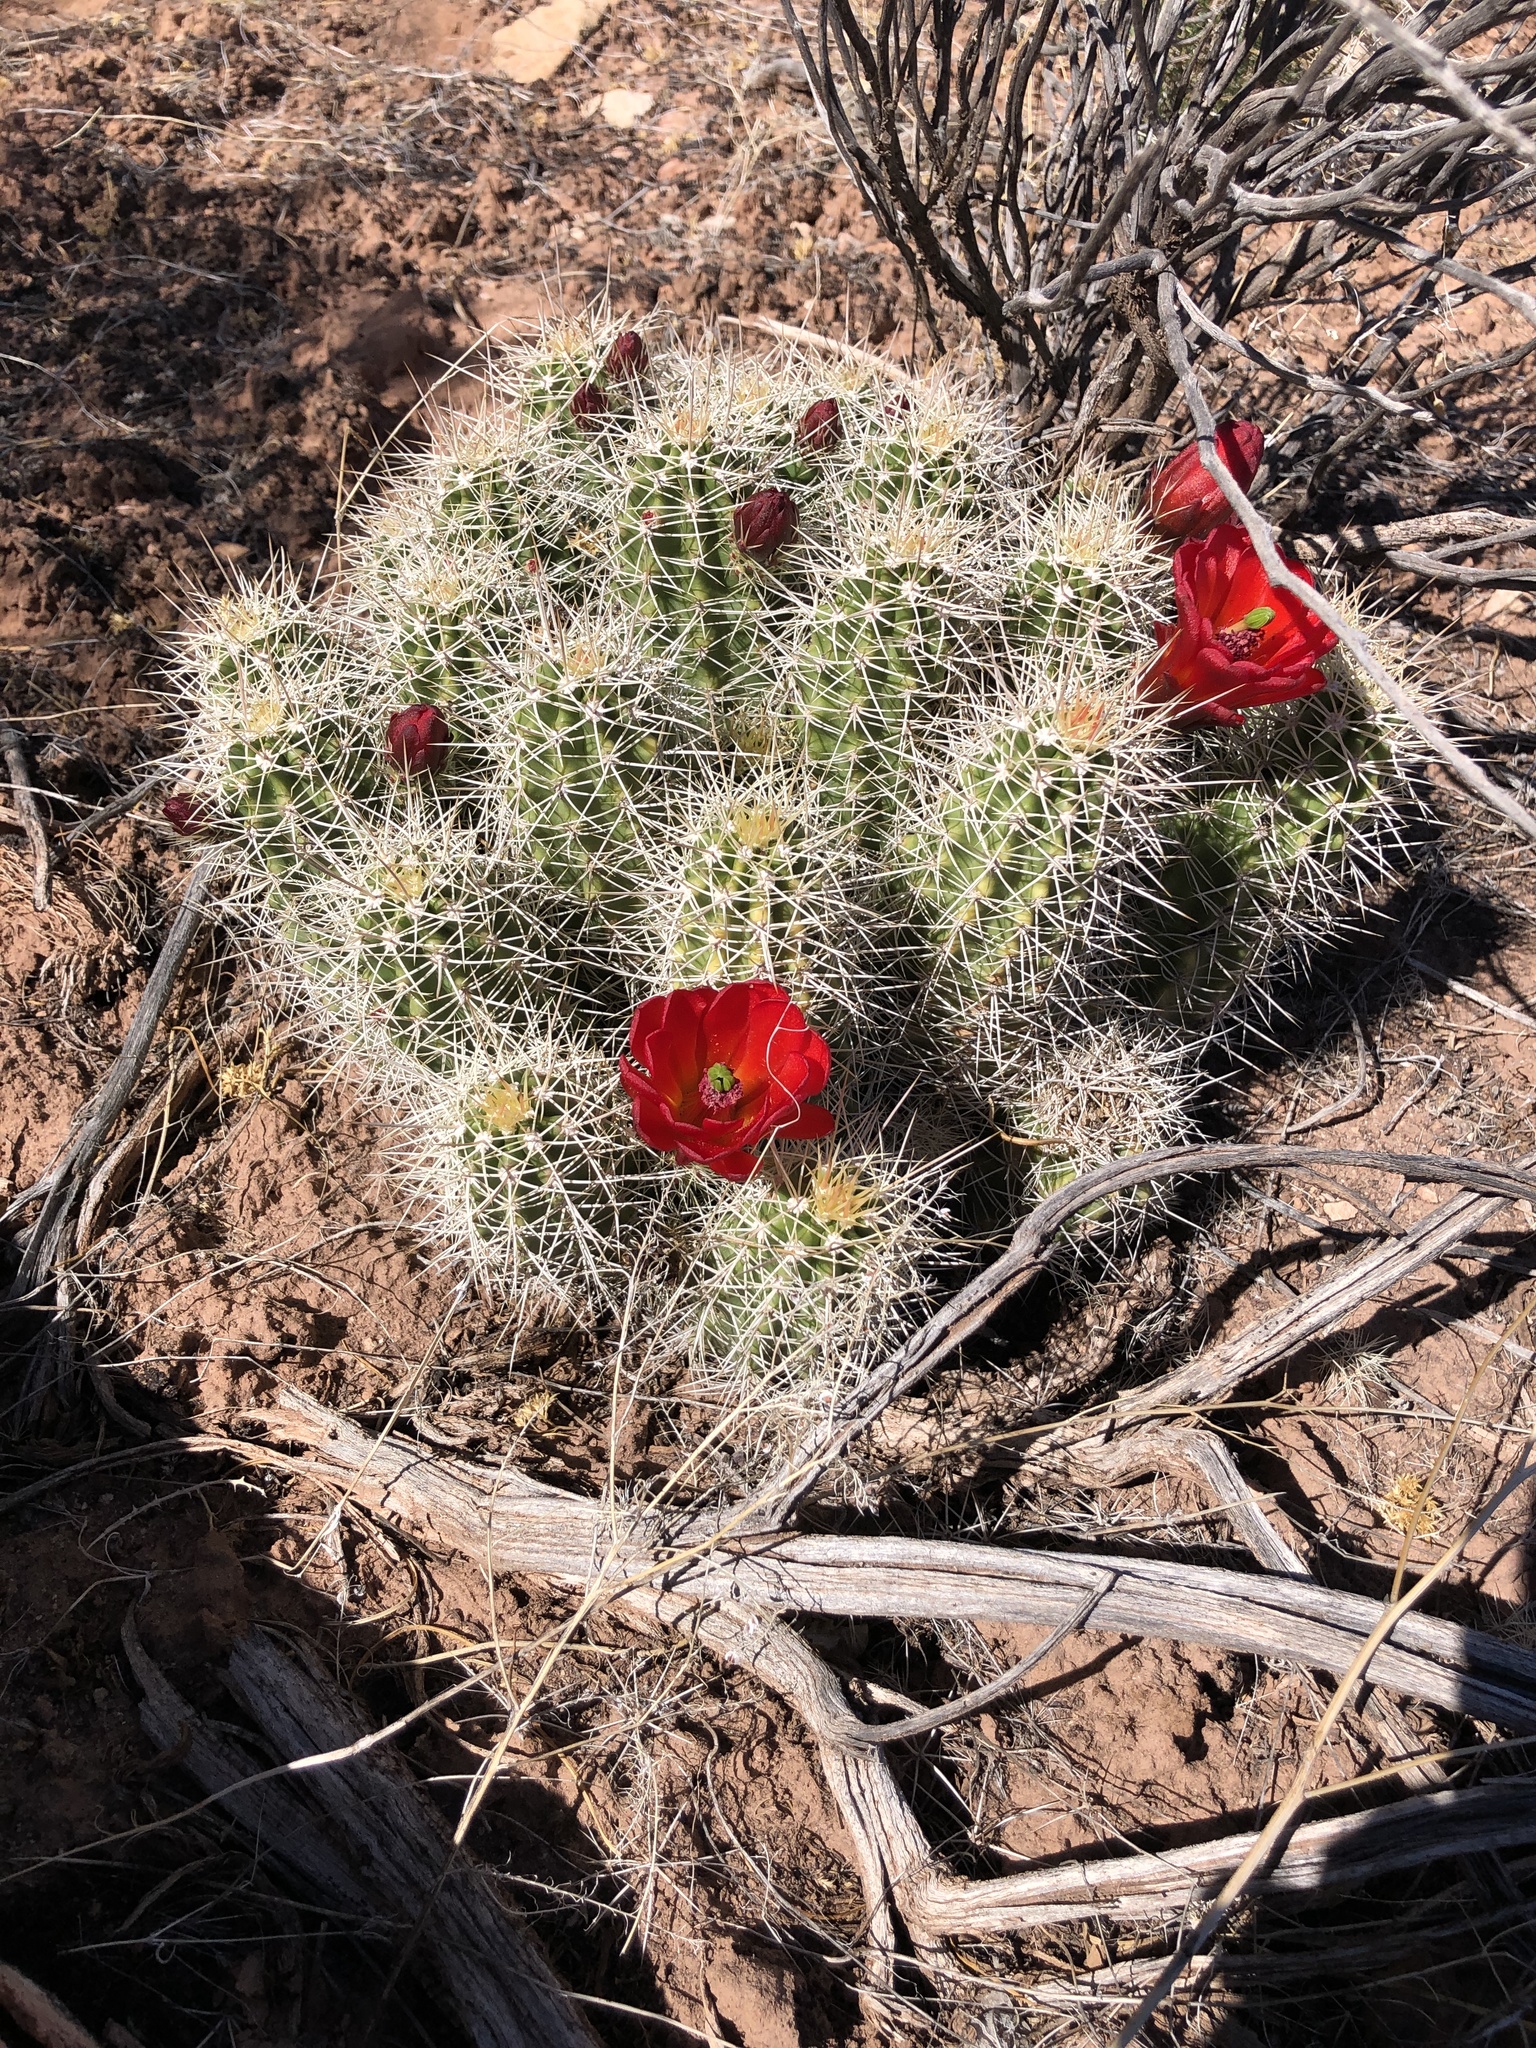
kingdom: Plantae
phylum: Tracheophyta
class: Magnoliopsida
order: Caryophyllales
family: Cactaceae
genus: Echinocereus
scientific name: Echinocereus triglochidiatus
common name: Claretcup hedgehog
